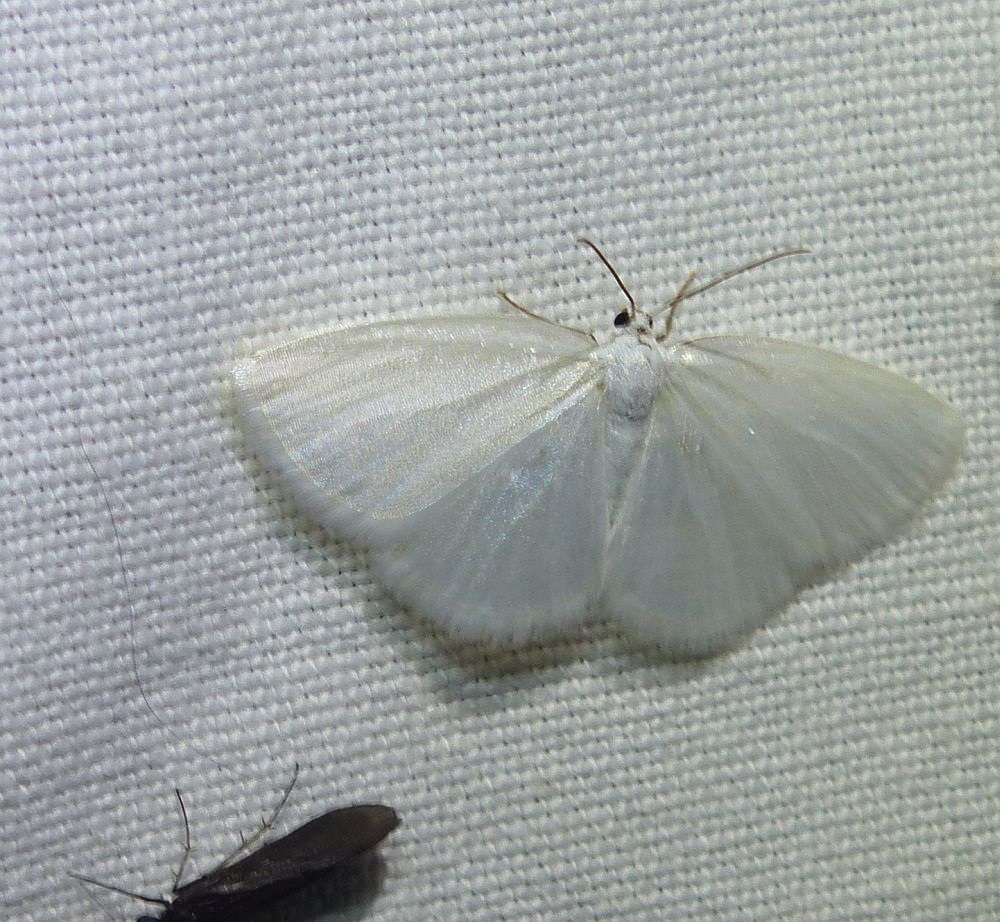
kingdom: Animalia
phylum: Arthropoda
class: Insecta
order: Lepidoptera
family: Geometridae
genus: Lomographa
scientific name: Lomographa vestaliata
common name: White spring moth
